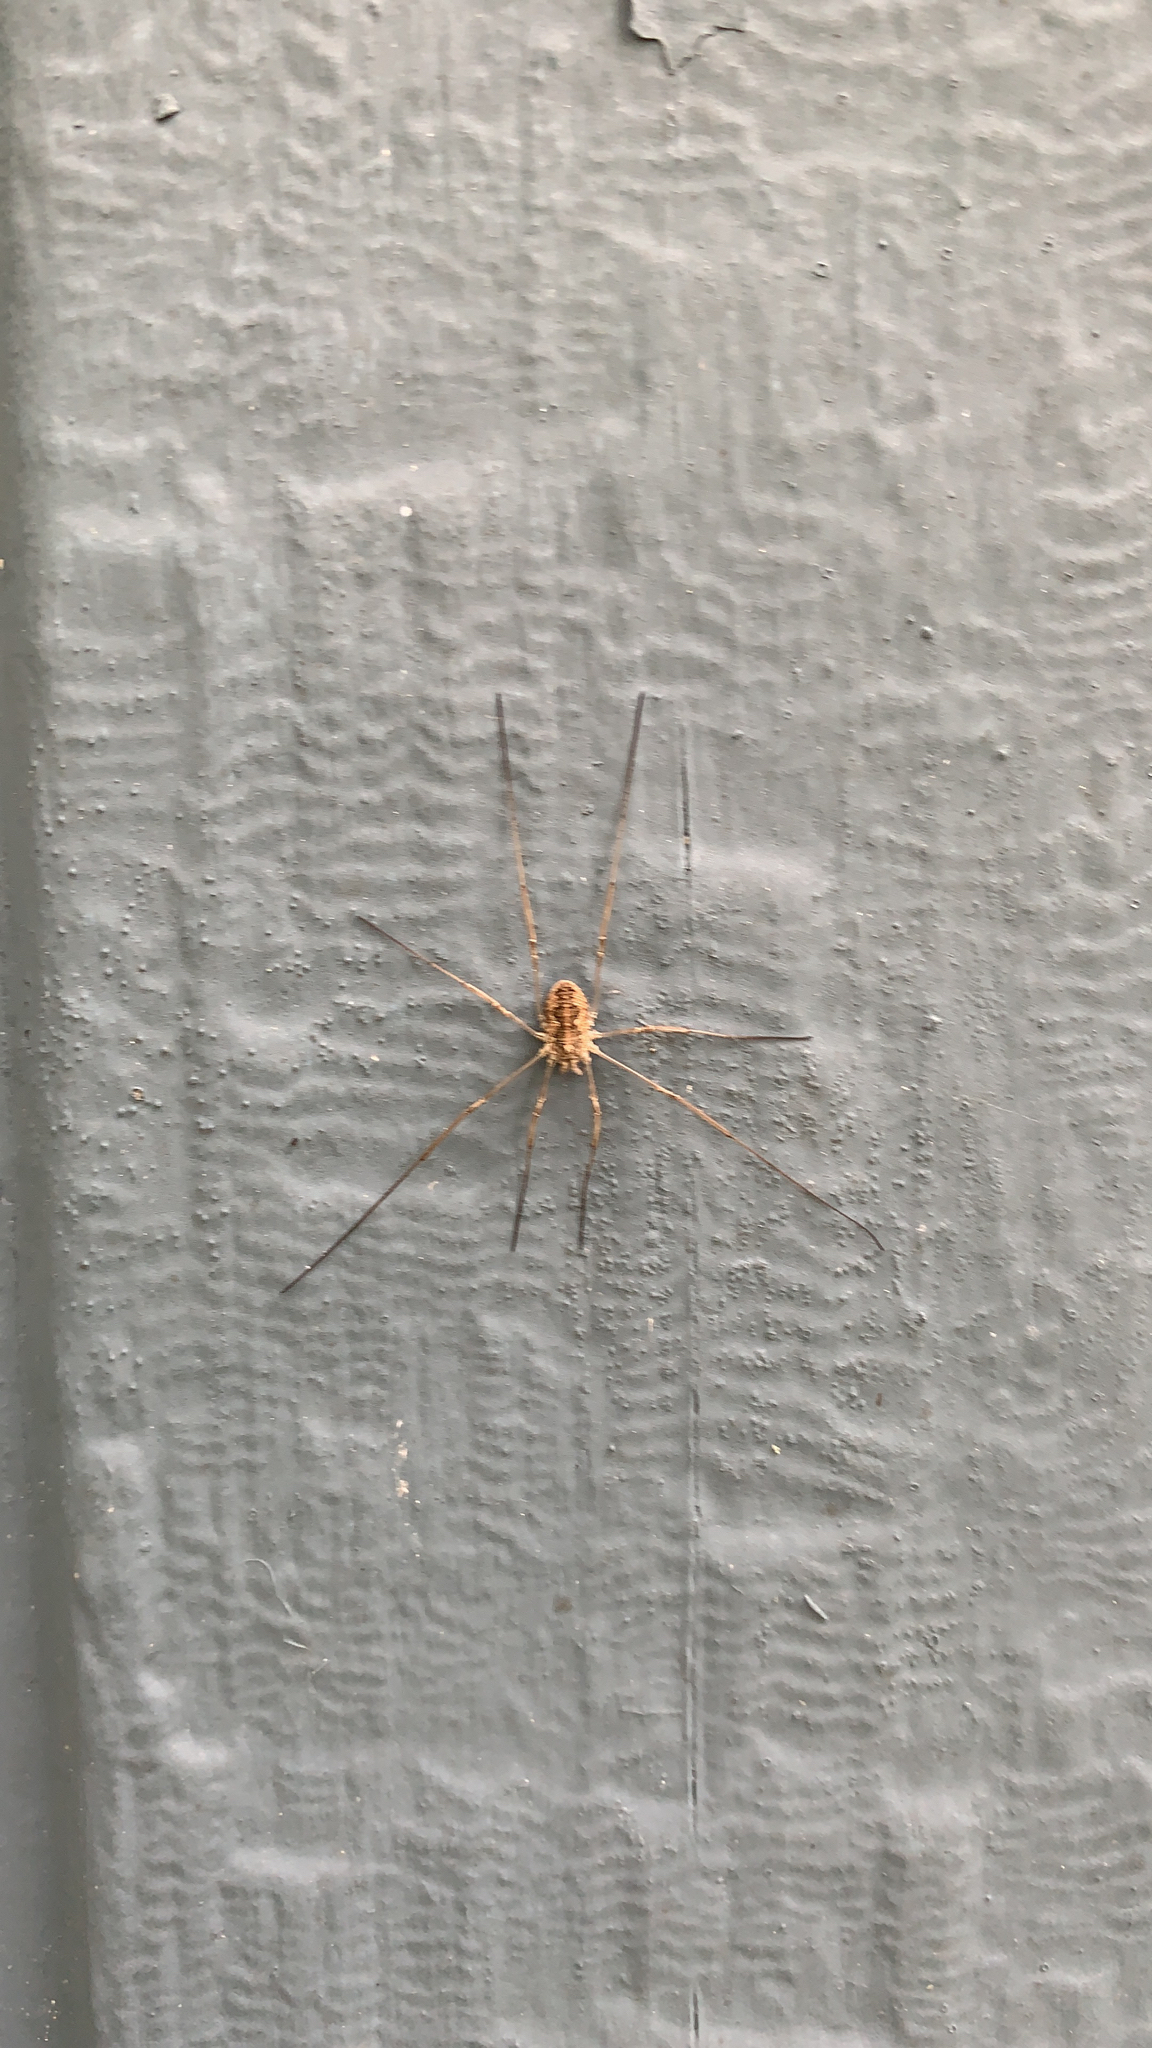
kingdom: Animalia
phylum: Arthropoda
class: Arachnida
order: Opiliones
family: Phalangiidae
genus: Phalangium
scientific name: Phalangium opilio
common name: Daddy longleg
